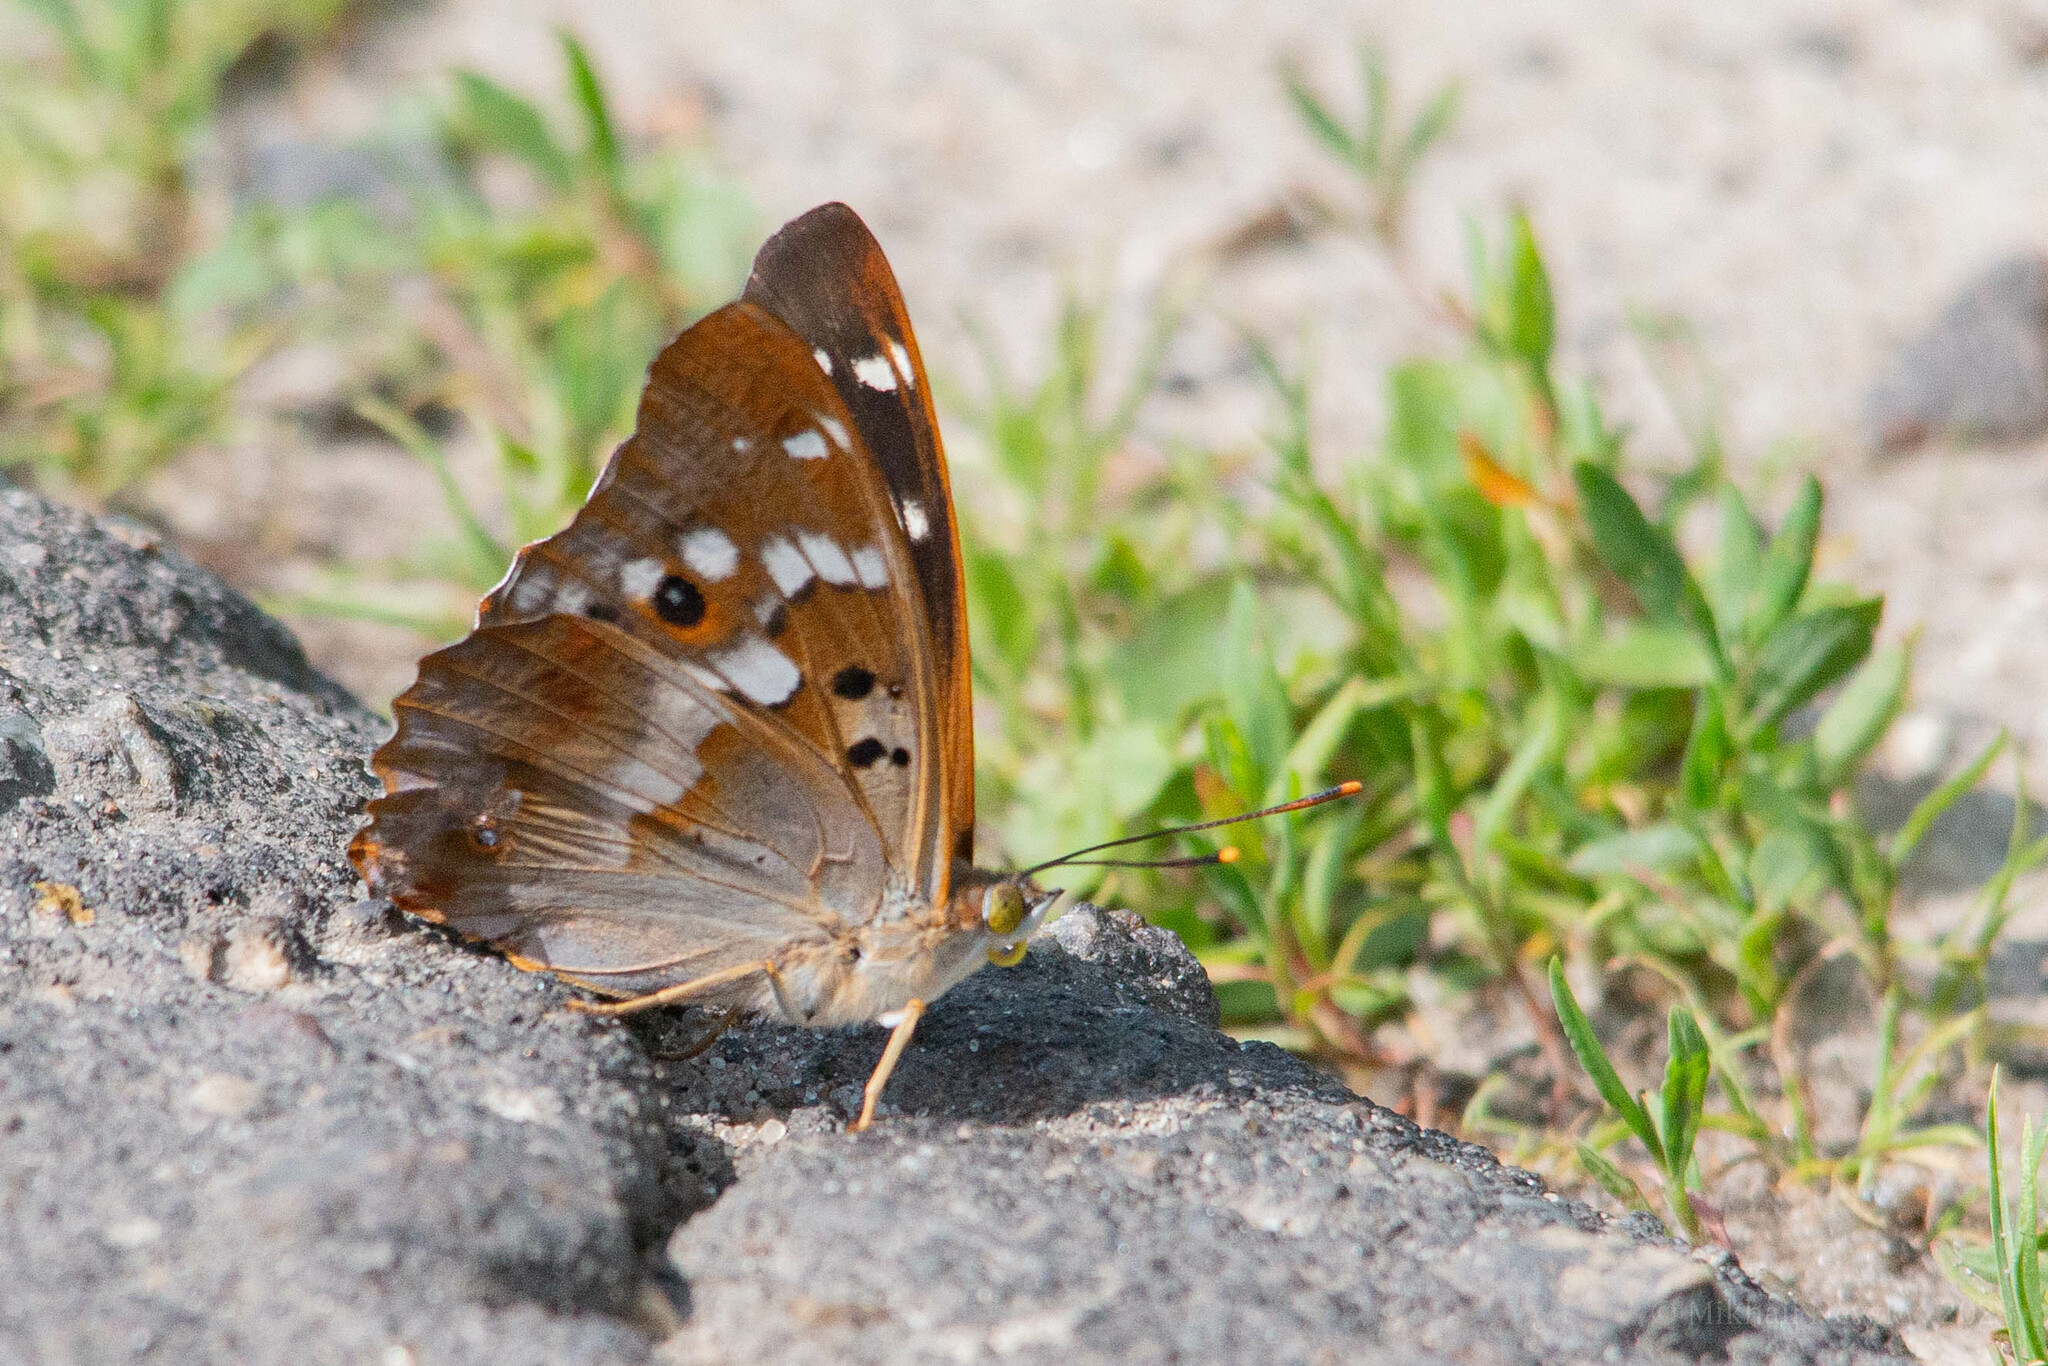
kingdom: Animalia
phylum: Arthropoda
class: Insecta
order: Lepidoptera
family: Nymphalidae
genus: Apatura
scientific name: Apatura ilia
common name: Lesser purple emperor
